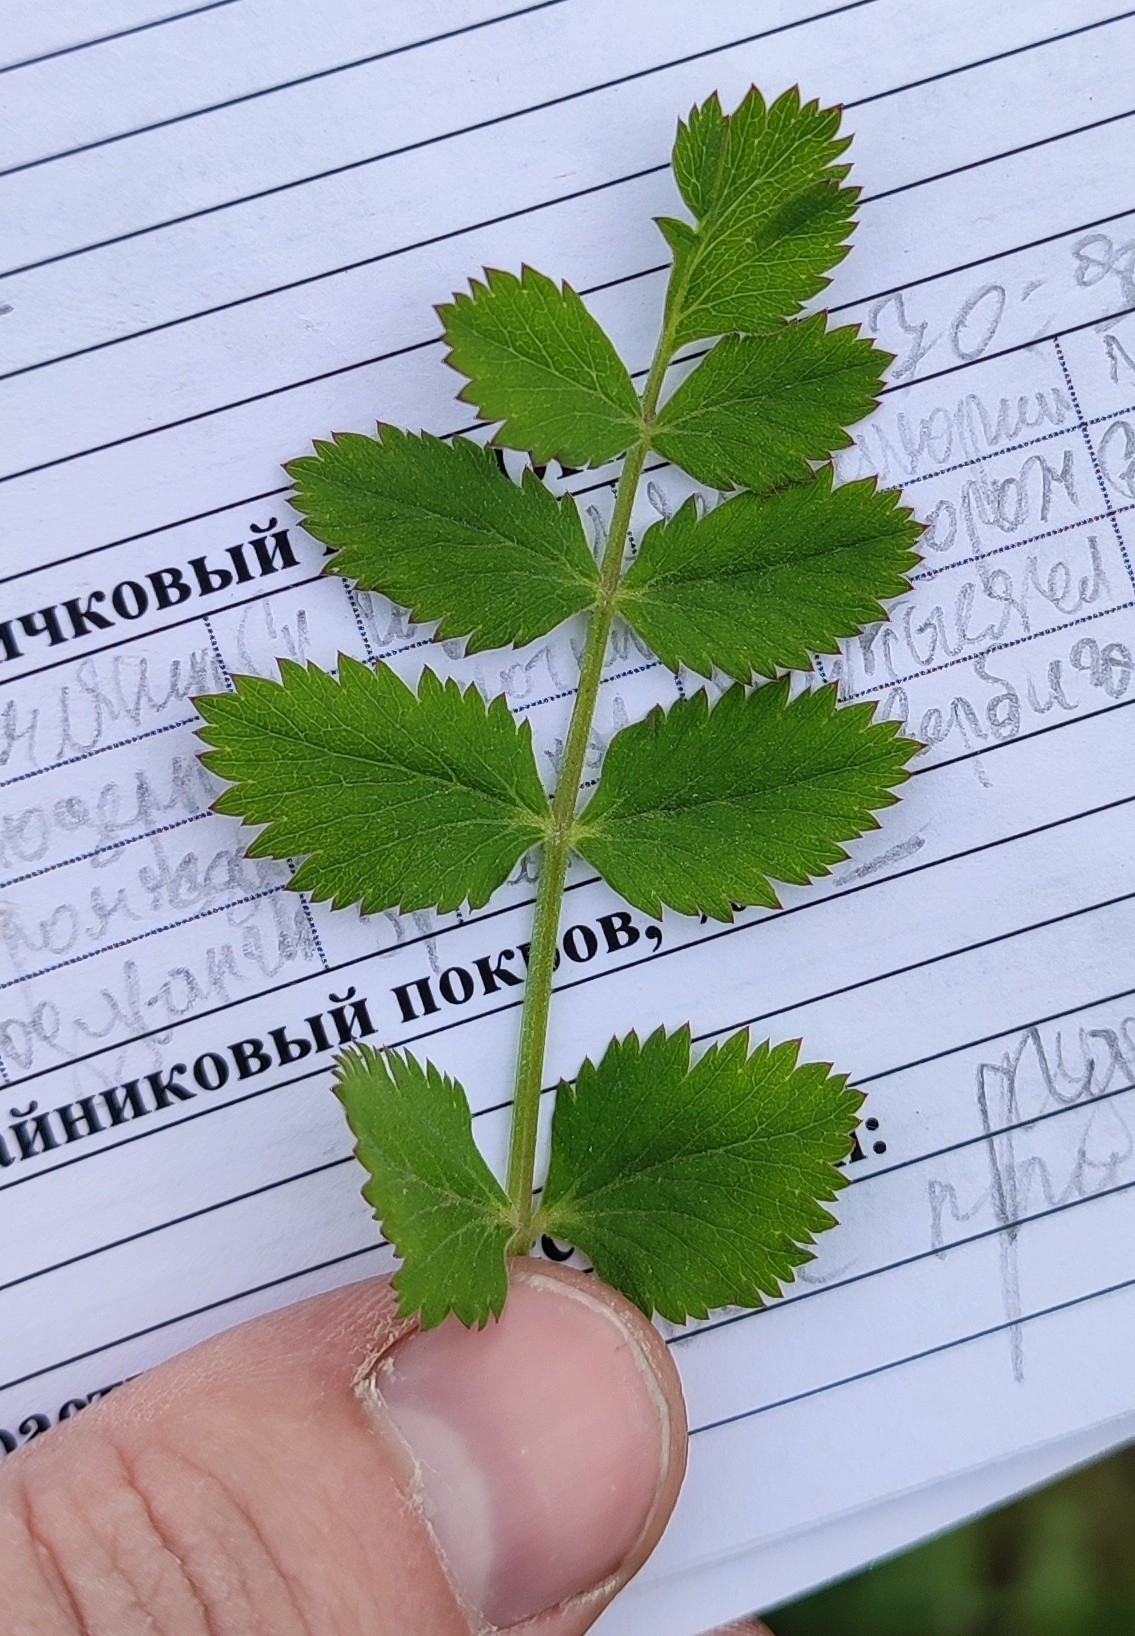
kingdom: Plantae
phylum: Tracheophyta
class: Magnoliopsida
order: Apiales
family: Apiaceae
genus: Pimpinella
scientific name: Pimpinella saxifraga
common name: Burnet-saxifrage
